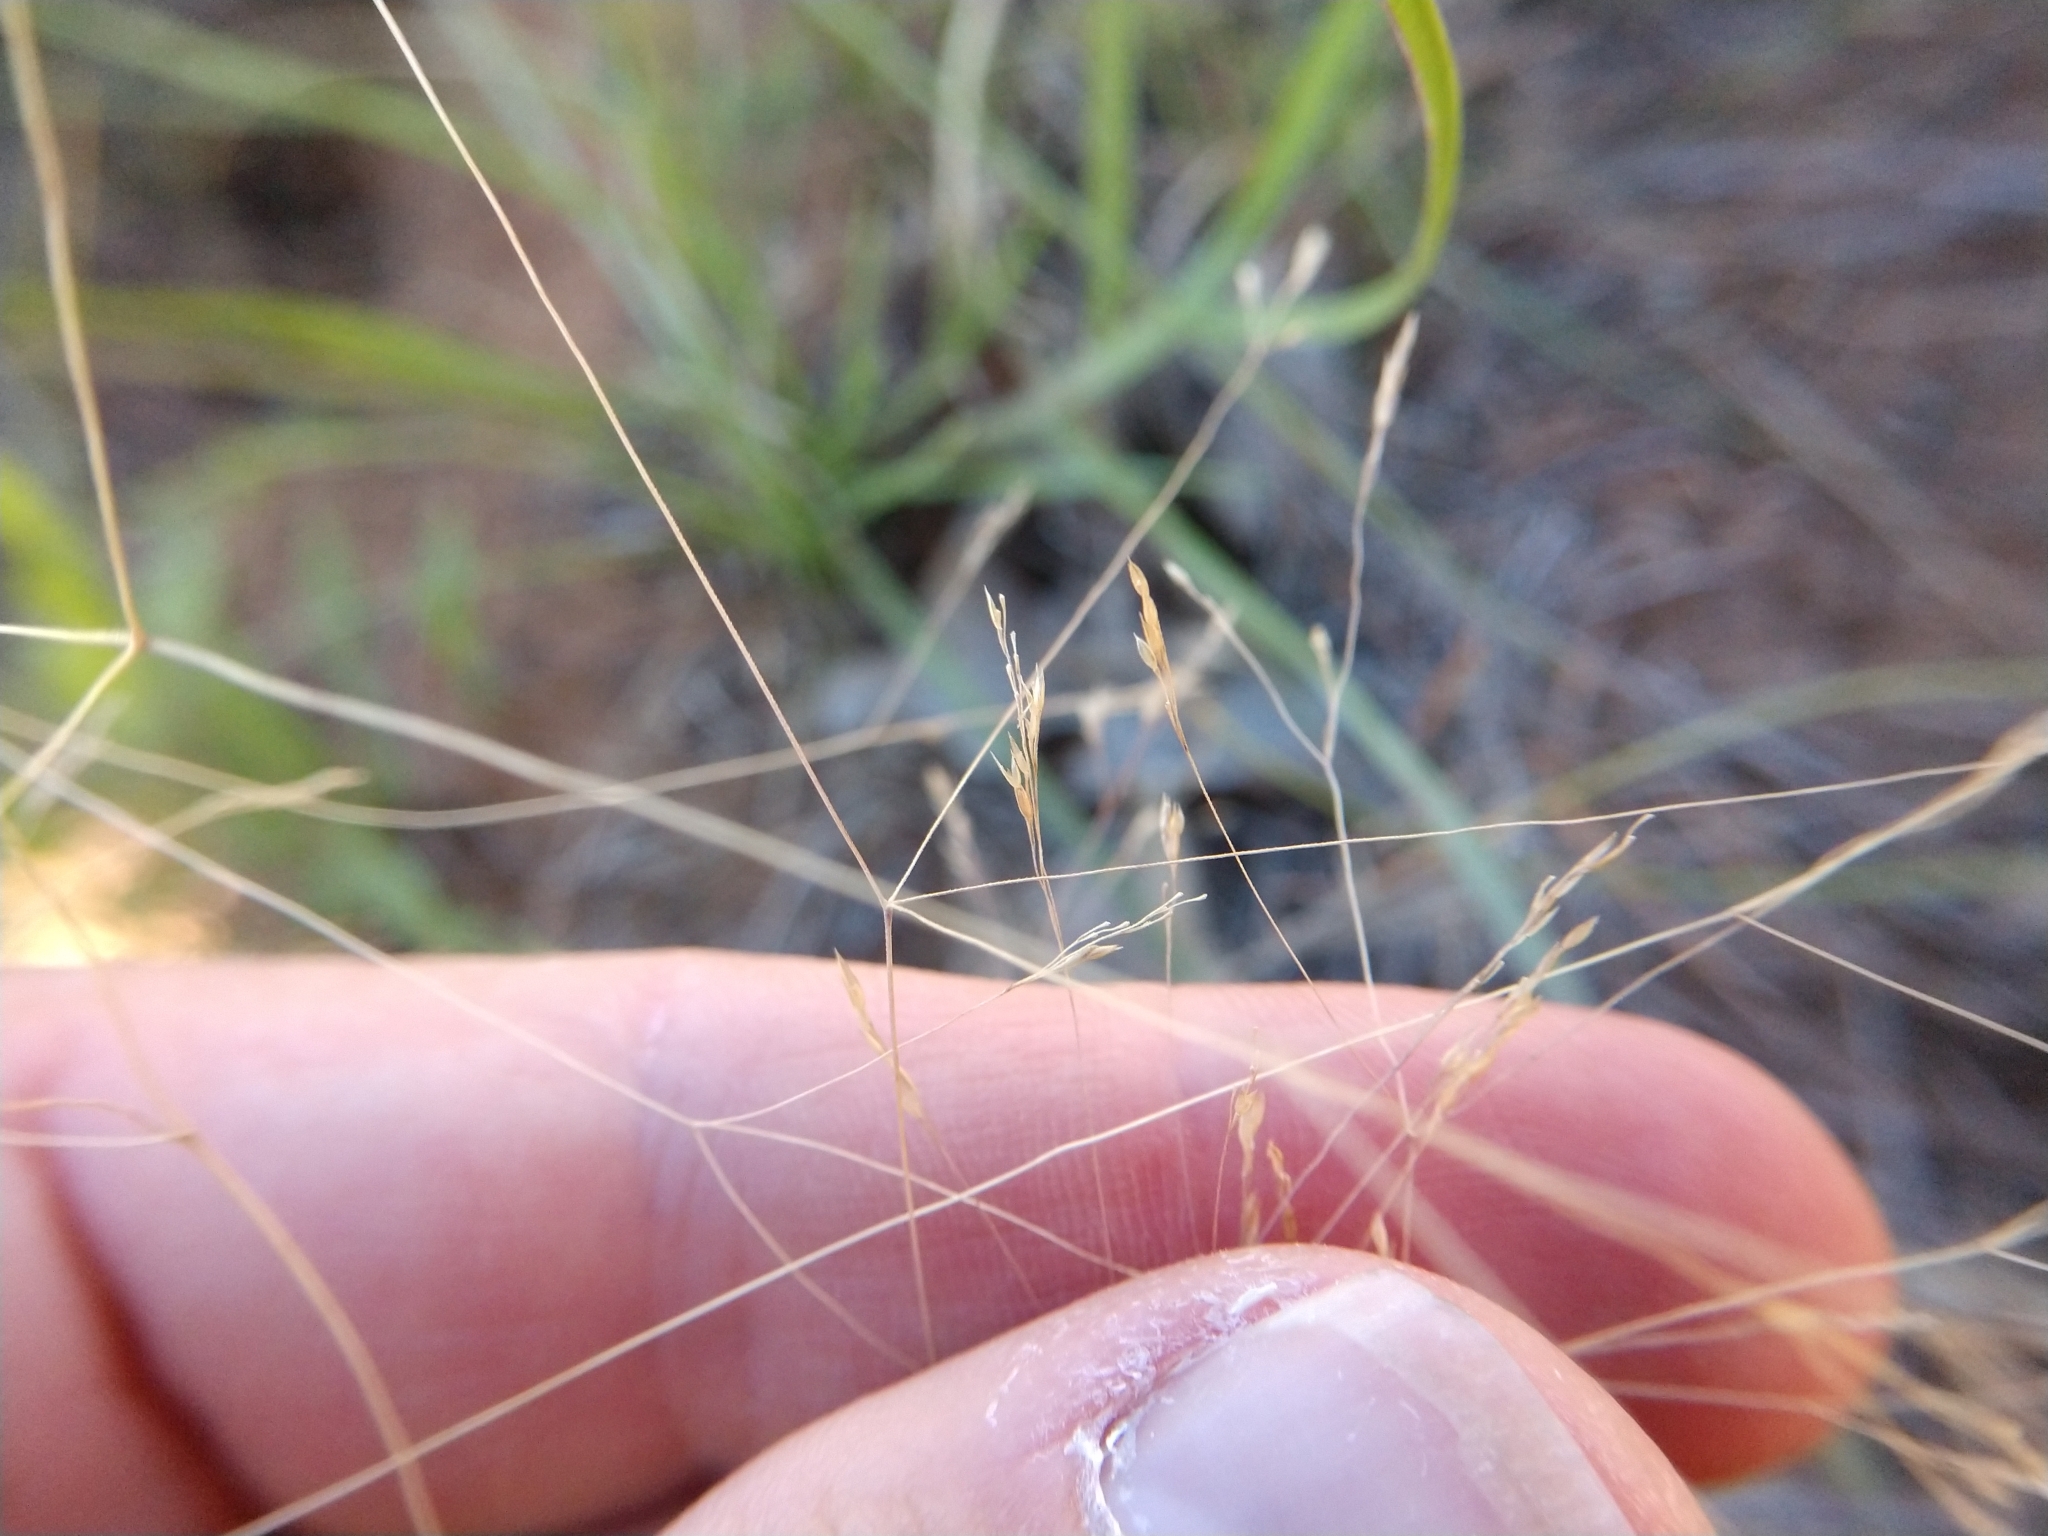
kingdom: Plantae
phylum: Tracheophyta
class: Liliopsida
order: Poales
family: Poaceae
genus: Agrostis
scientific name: Agrostis hyemalis
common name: Small bent
